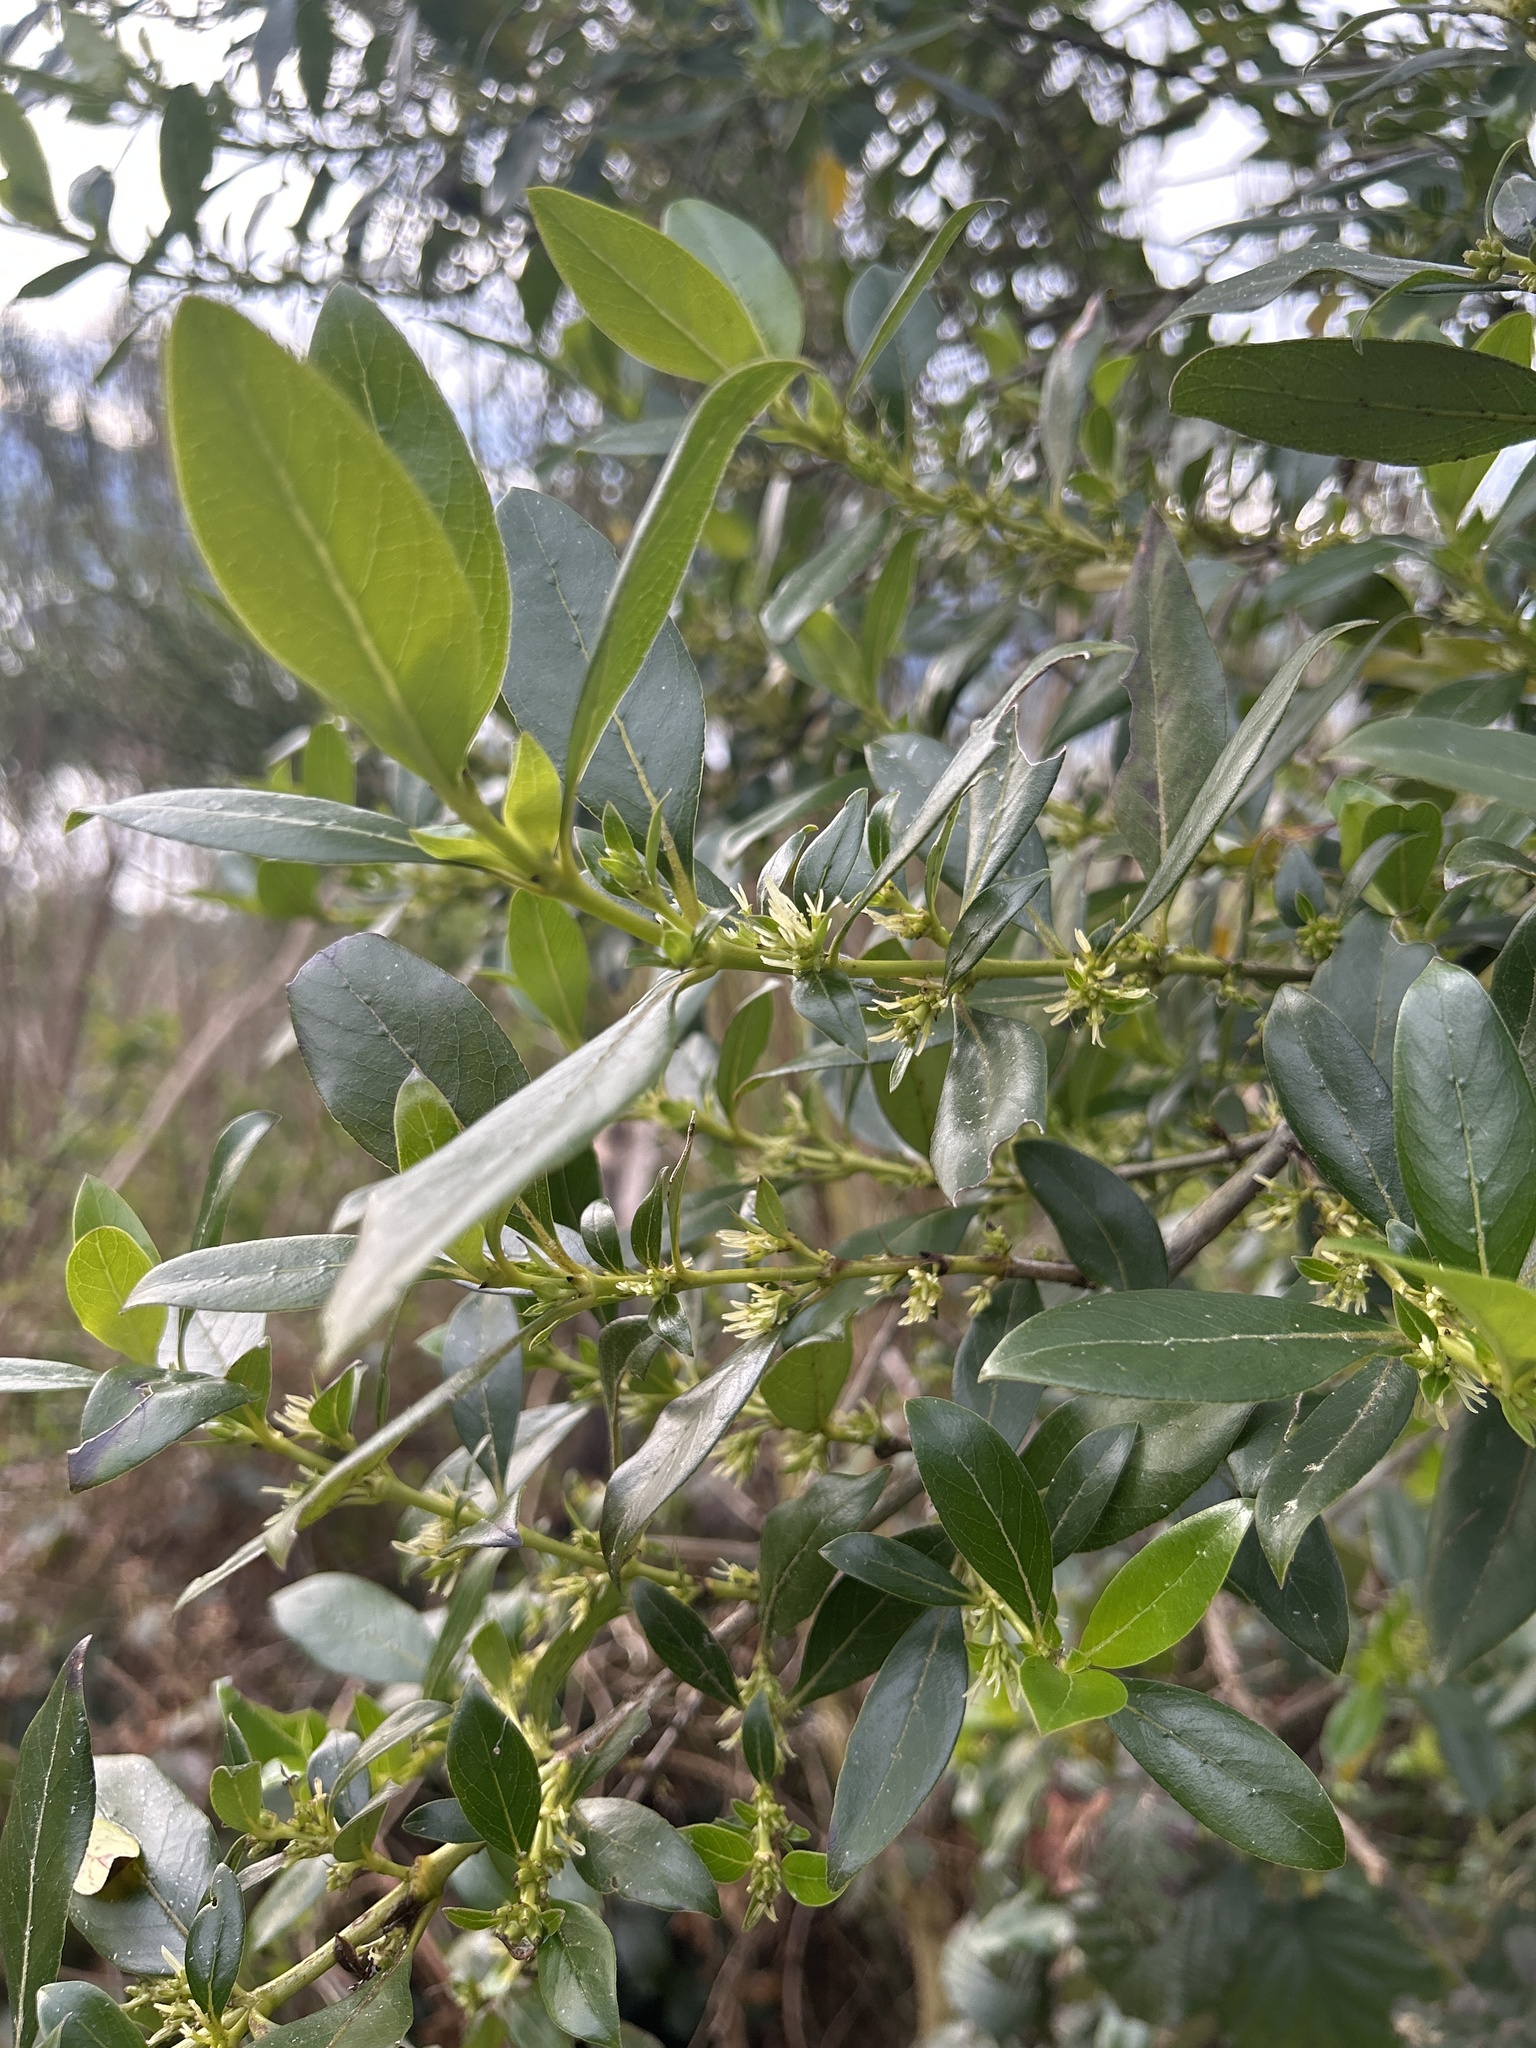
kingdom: Plantae
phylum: Tracheophyta
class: Magnoliopsida
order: Gentianales
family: Rubiaceae
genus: Coprosma
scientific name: Coprosma robusta
